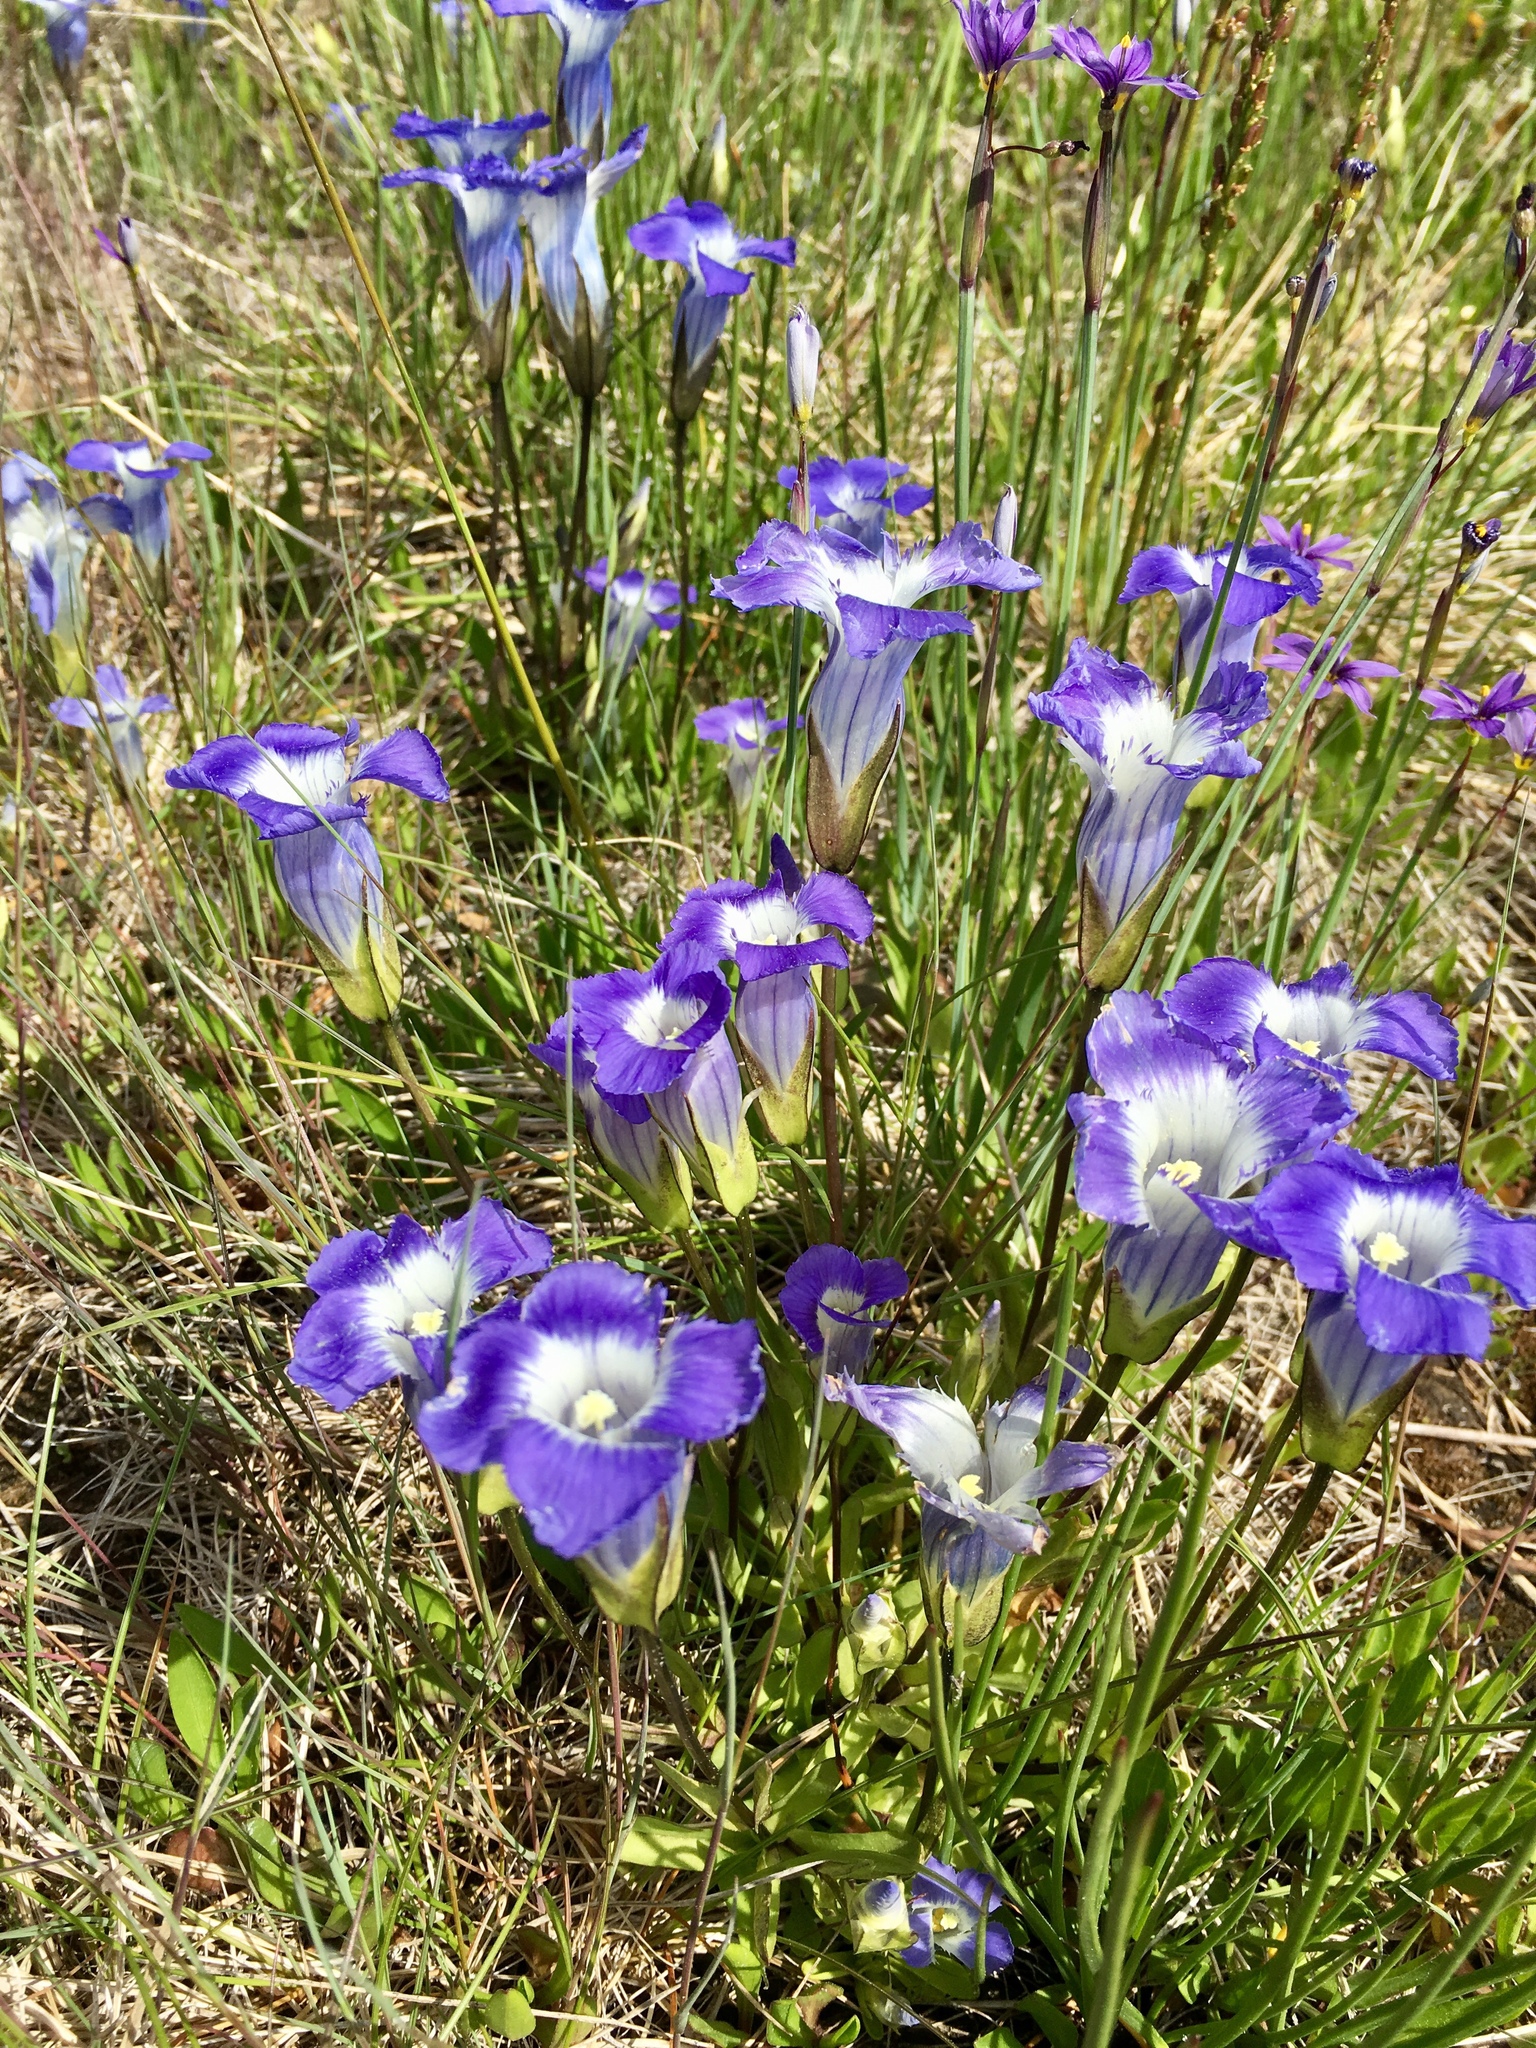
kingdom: Plantae
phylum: Tracheophyta
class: Magnoliopsida
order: Gentianales
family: Gentianaceae
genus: Gentianopsis
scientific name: Gentianopsis thermalis
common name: Rocky mountain fringed-gentian
